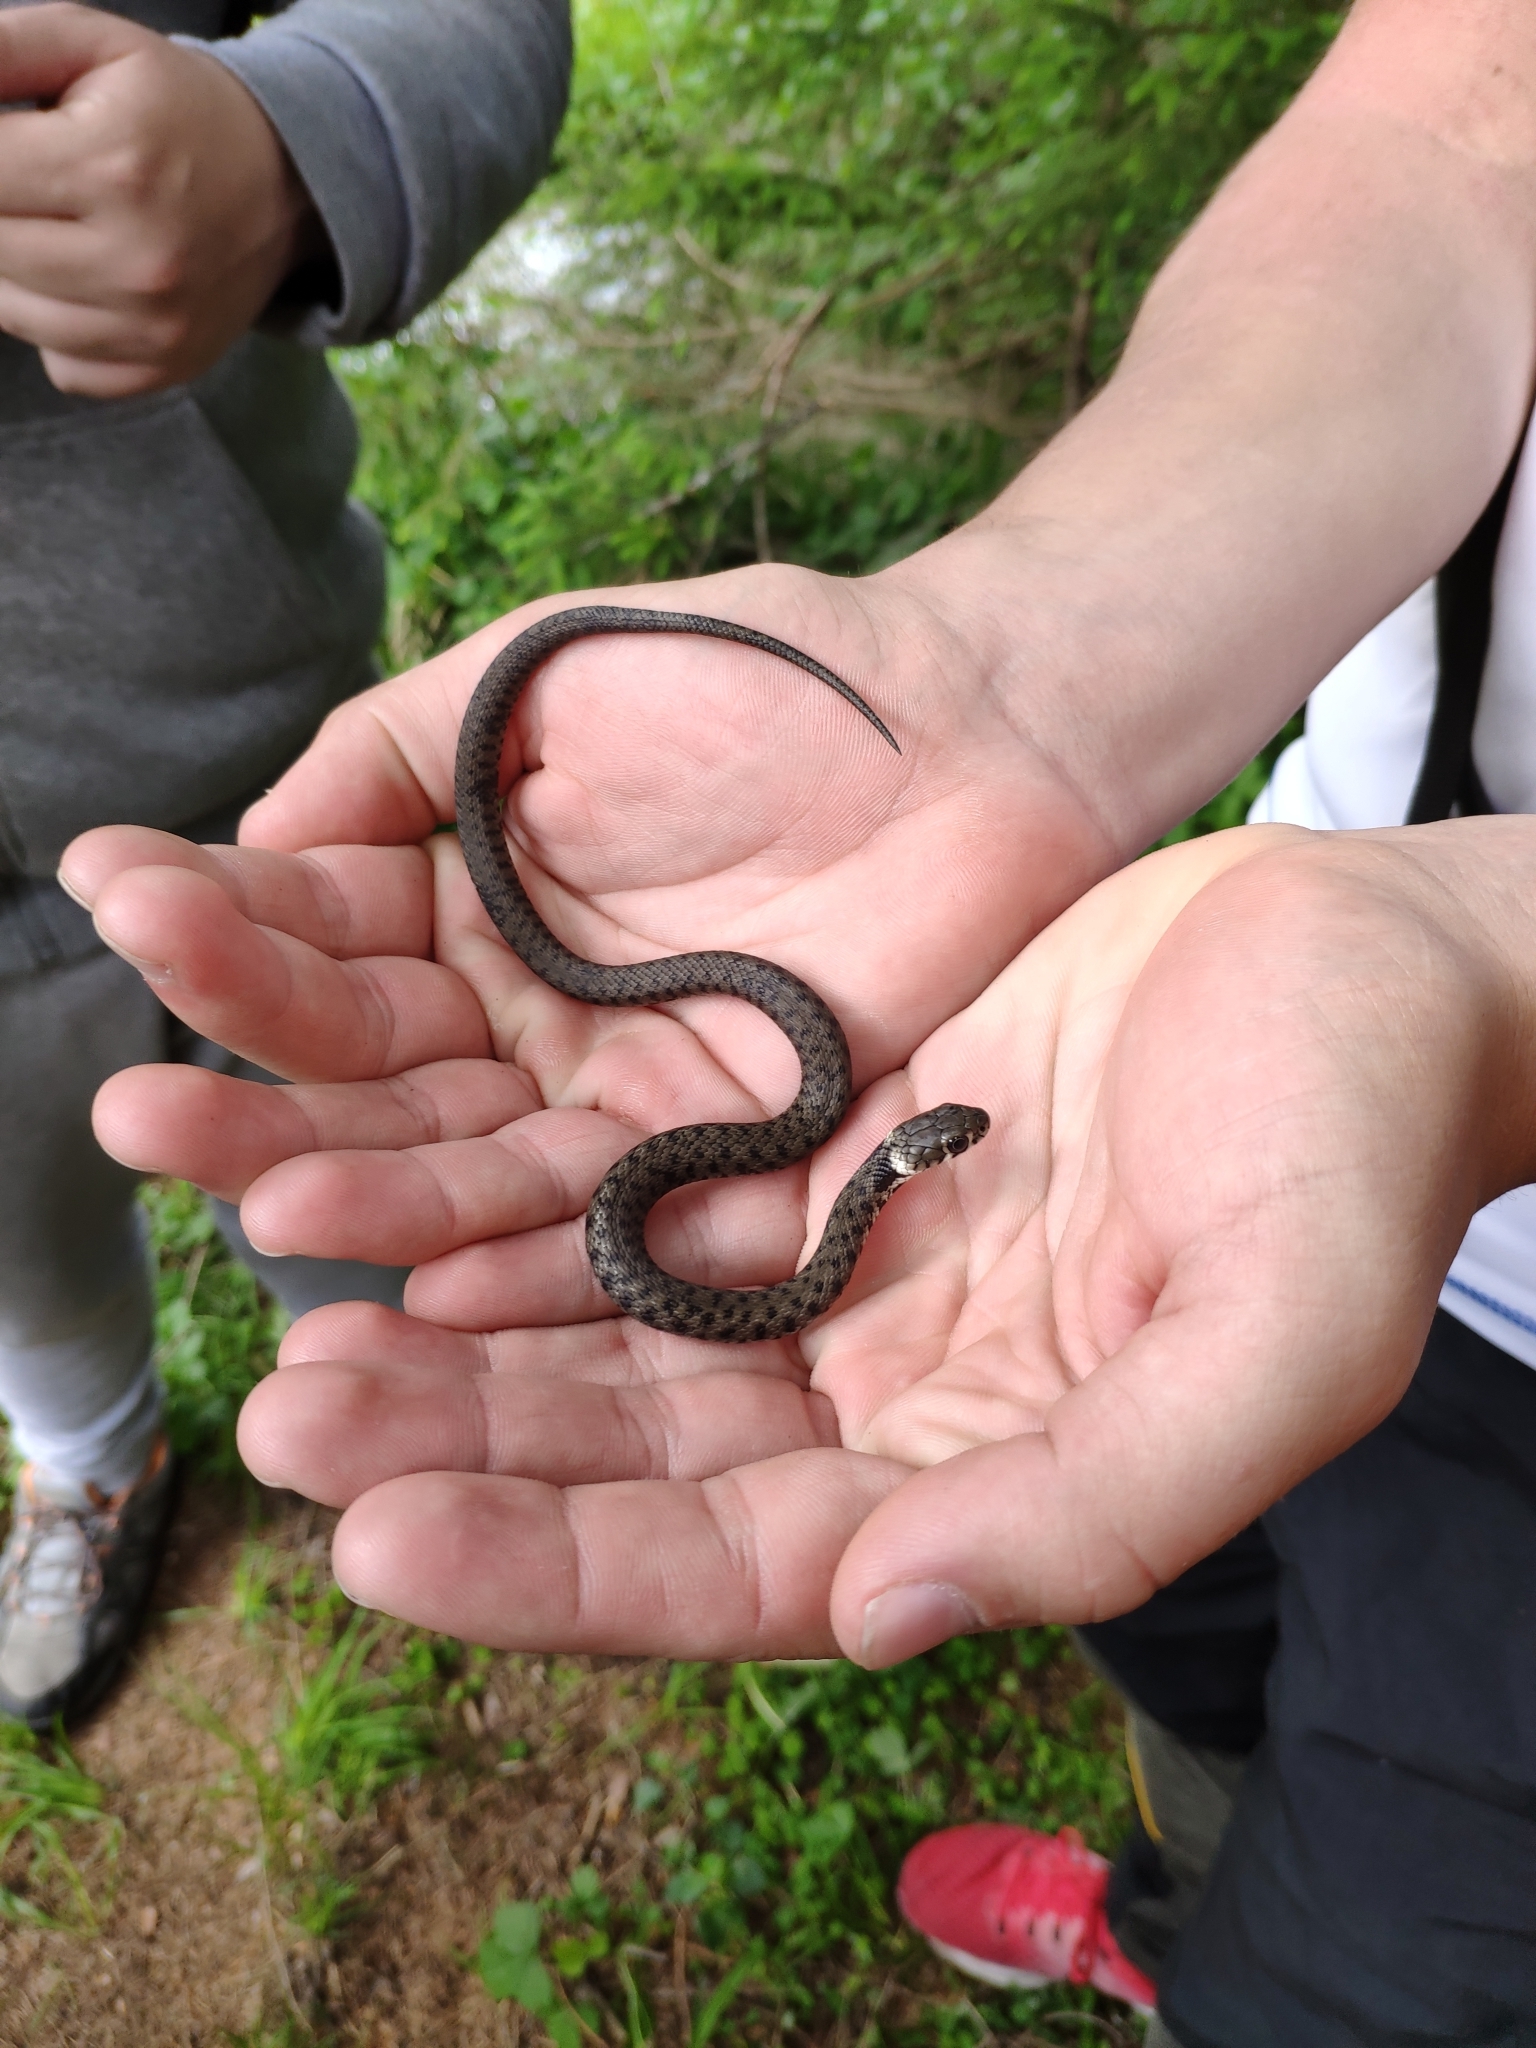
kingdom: Animalia
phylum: Chordata
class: Squamata
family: Colubridae
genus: Natrix
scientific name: Natrix helvetica
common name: Banded grass snake
